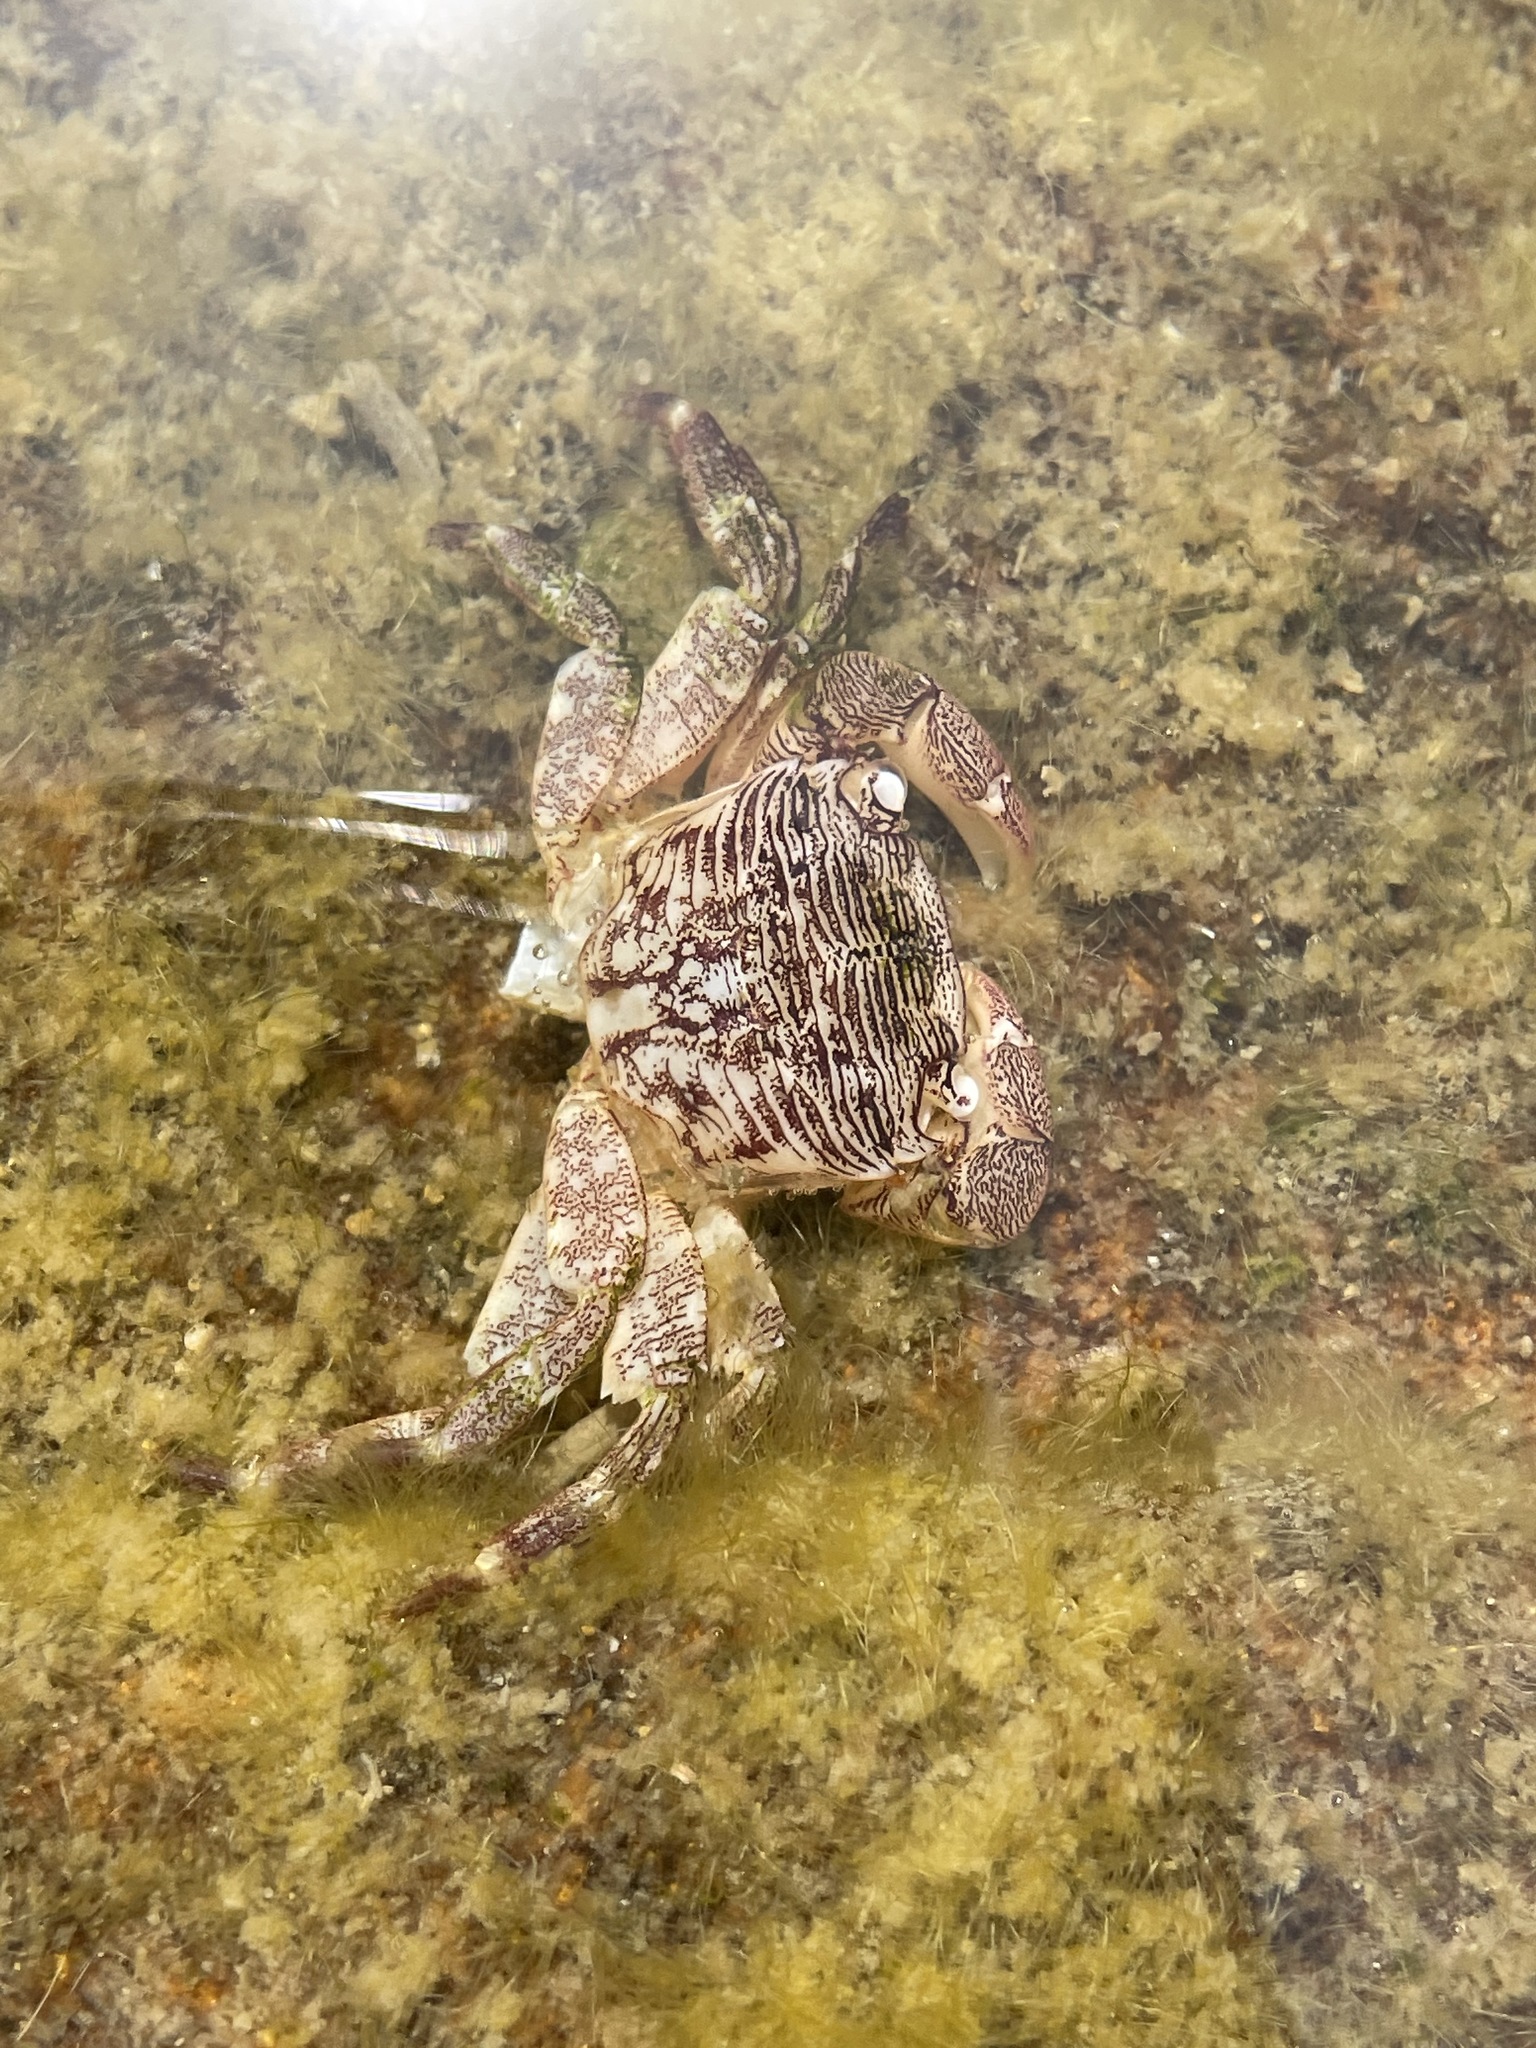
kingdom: Animalia
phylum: Arthropoda
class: Malacostraca
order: Decapoda
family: Grapsidae
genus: Pachygrapsus
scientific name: Pachygrapsus crassipes
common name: Striped shore crab
